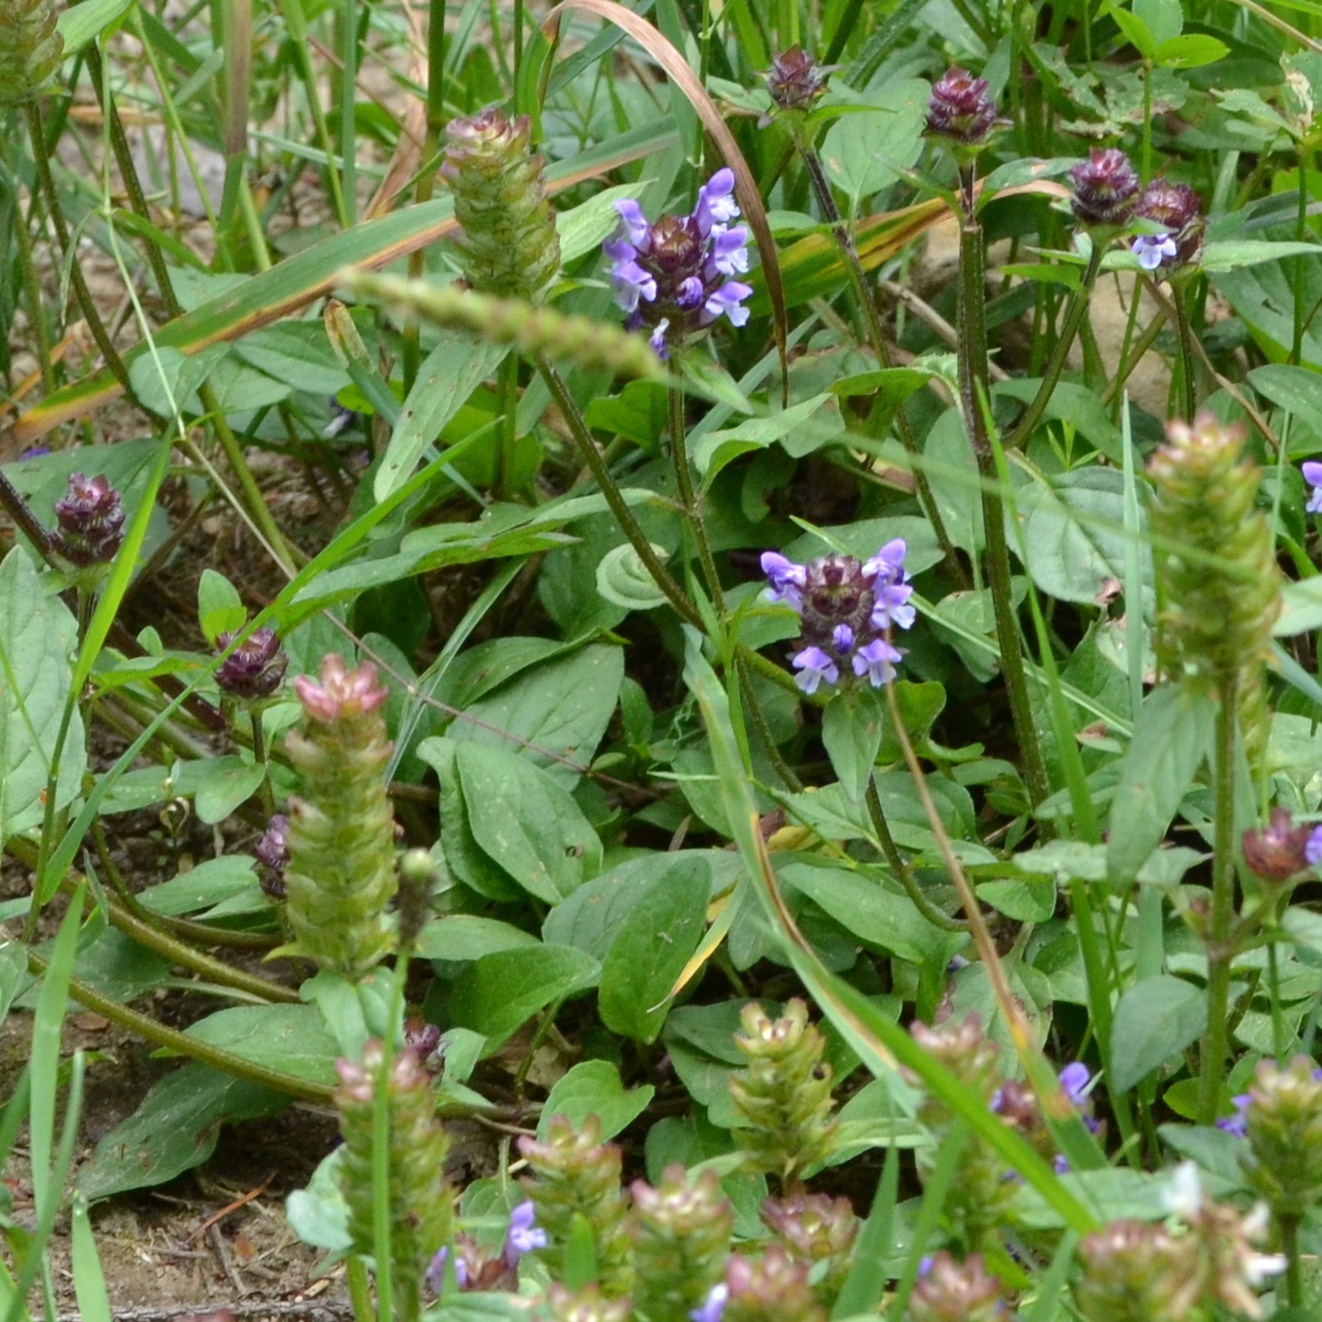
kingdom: Plantae
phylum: Tracheophyta
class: Magnoliopsida
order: Lamiales
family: Lamiaceae
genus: Prunella
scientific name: Prunella vulgaris
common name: Heal-all
